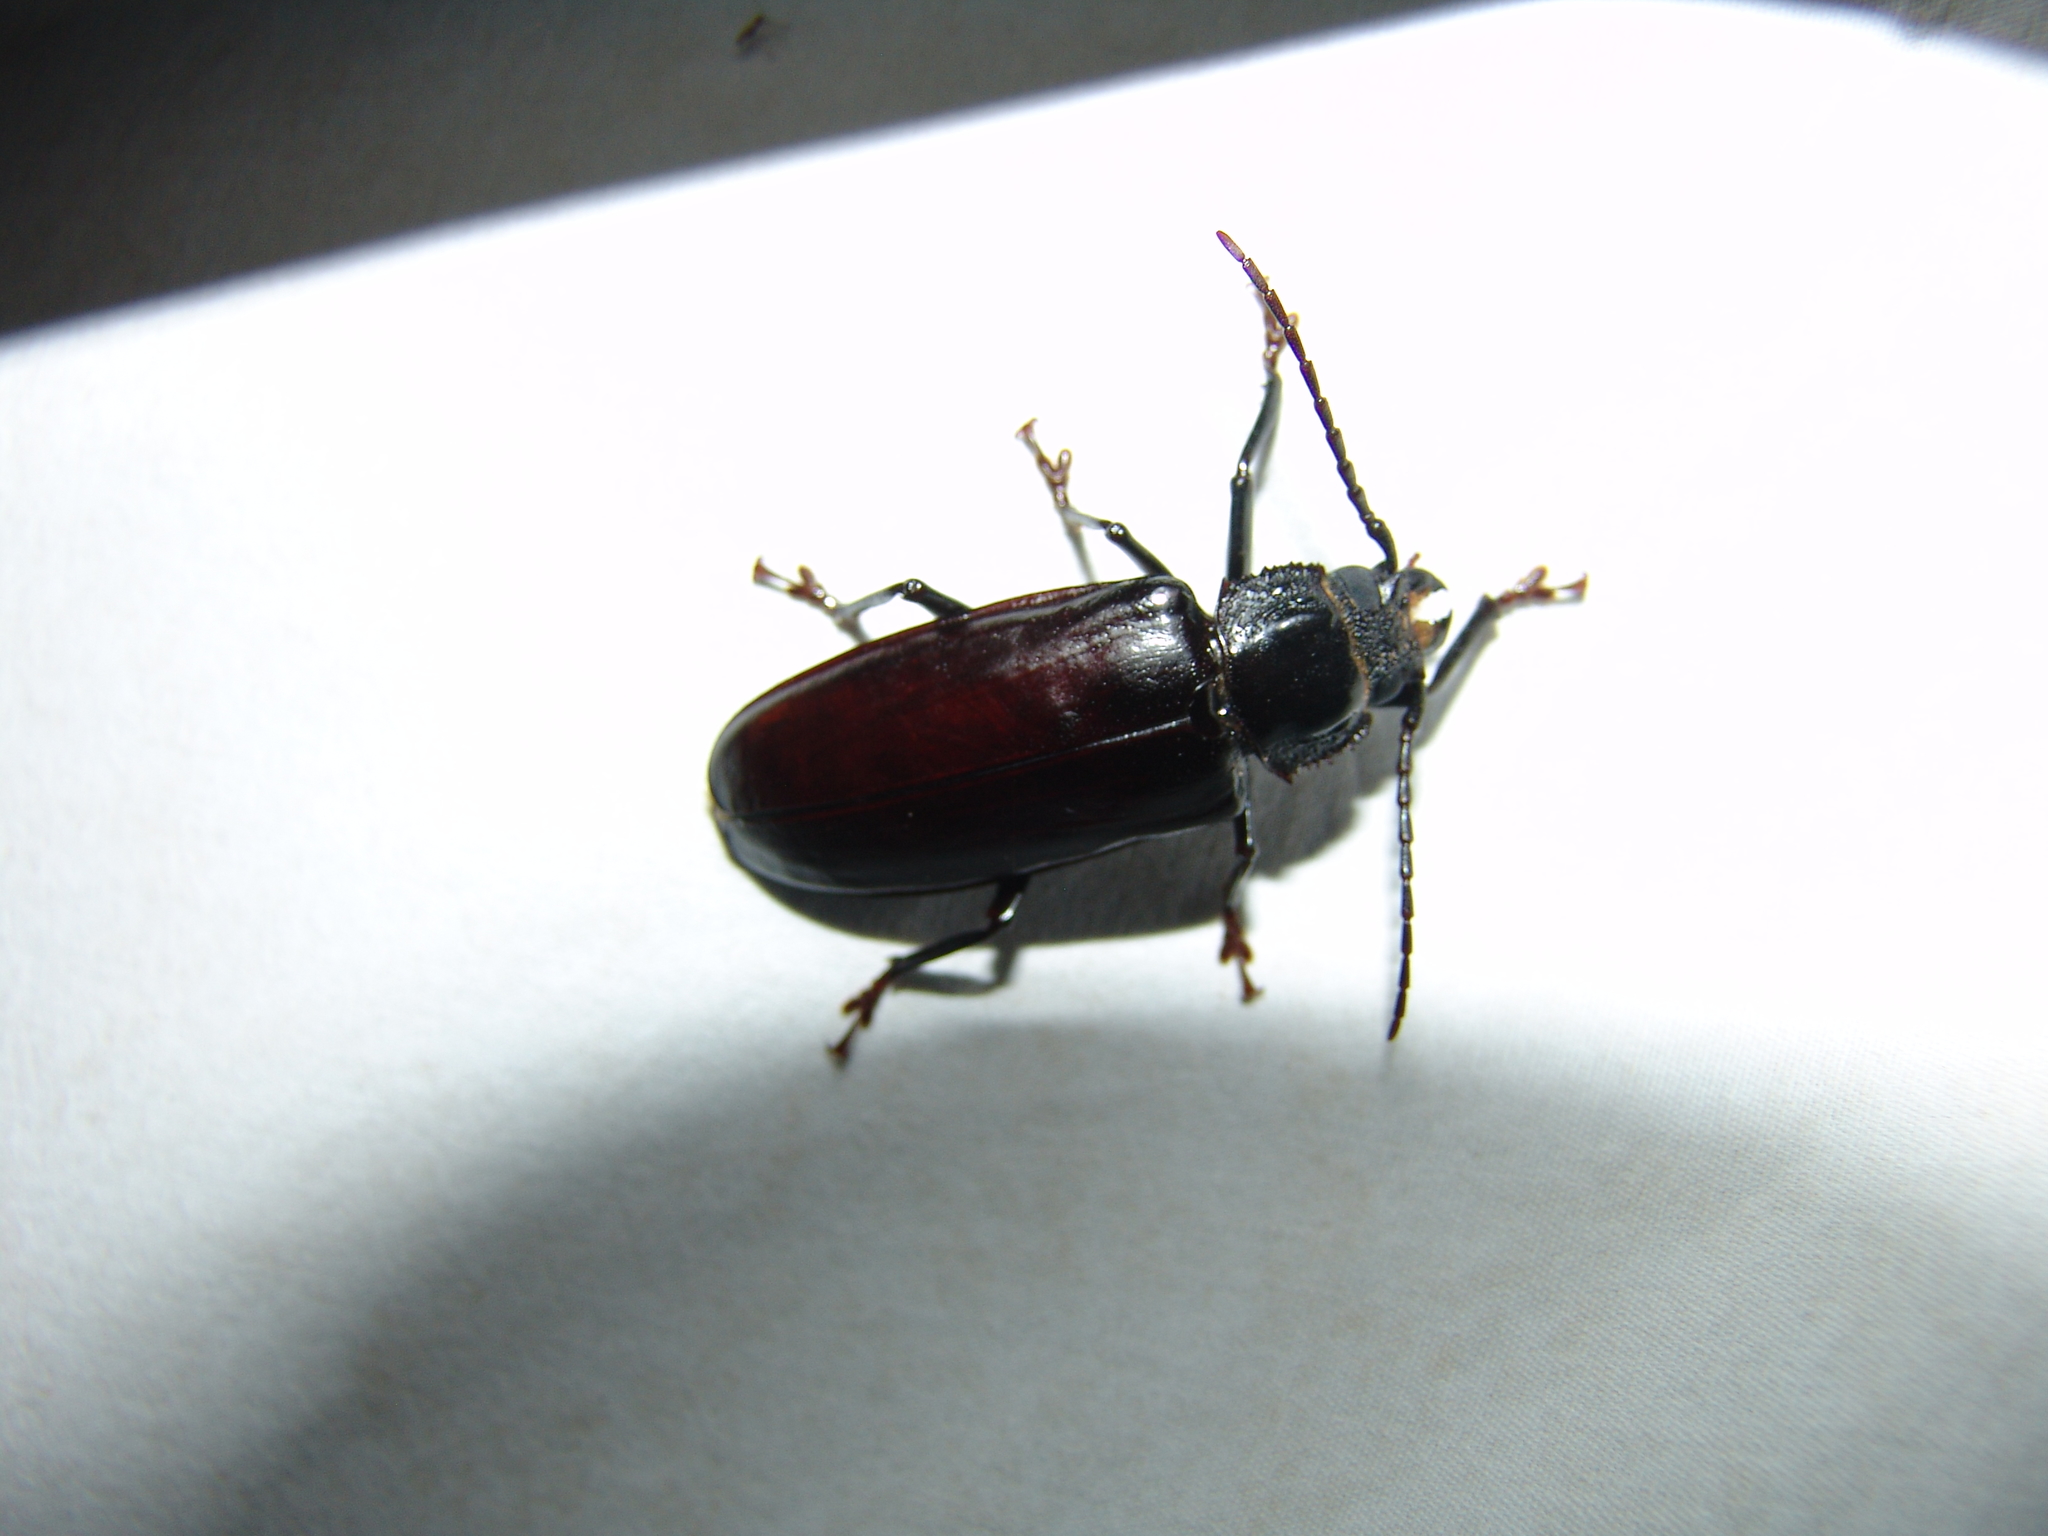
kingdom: Animalia
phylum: Arthropoda
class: Insecta
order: Coleoptera
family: Cerambycidae
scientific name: Cerambycidae
